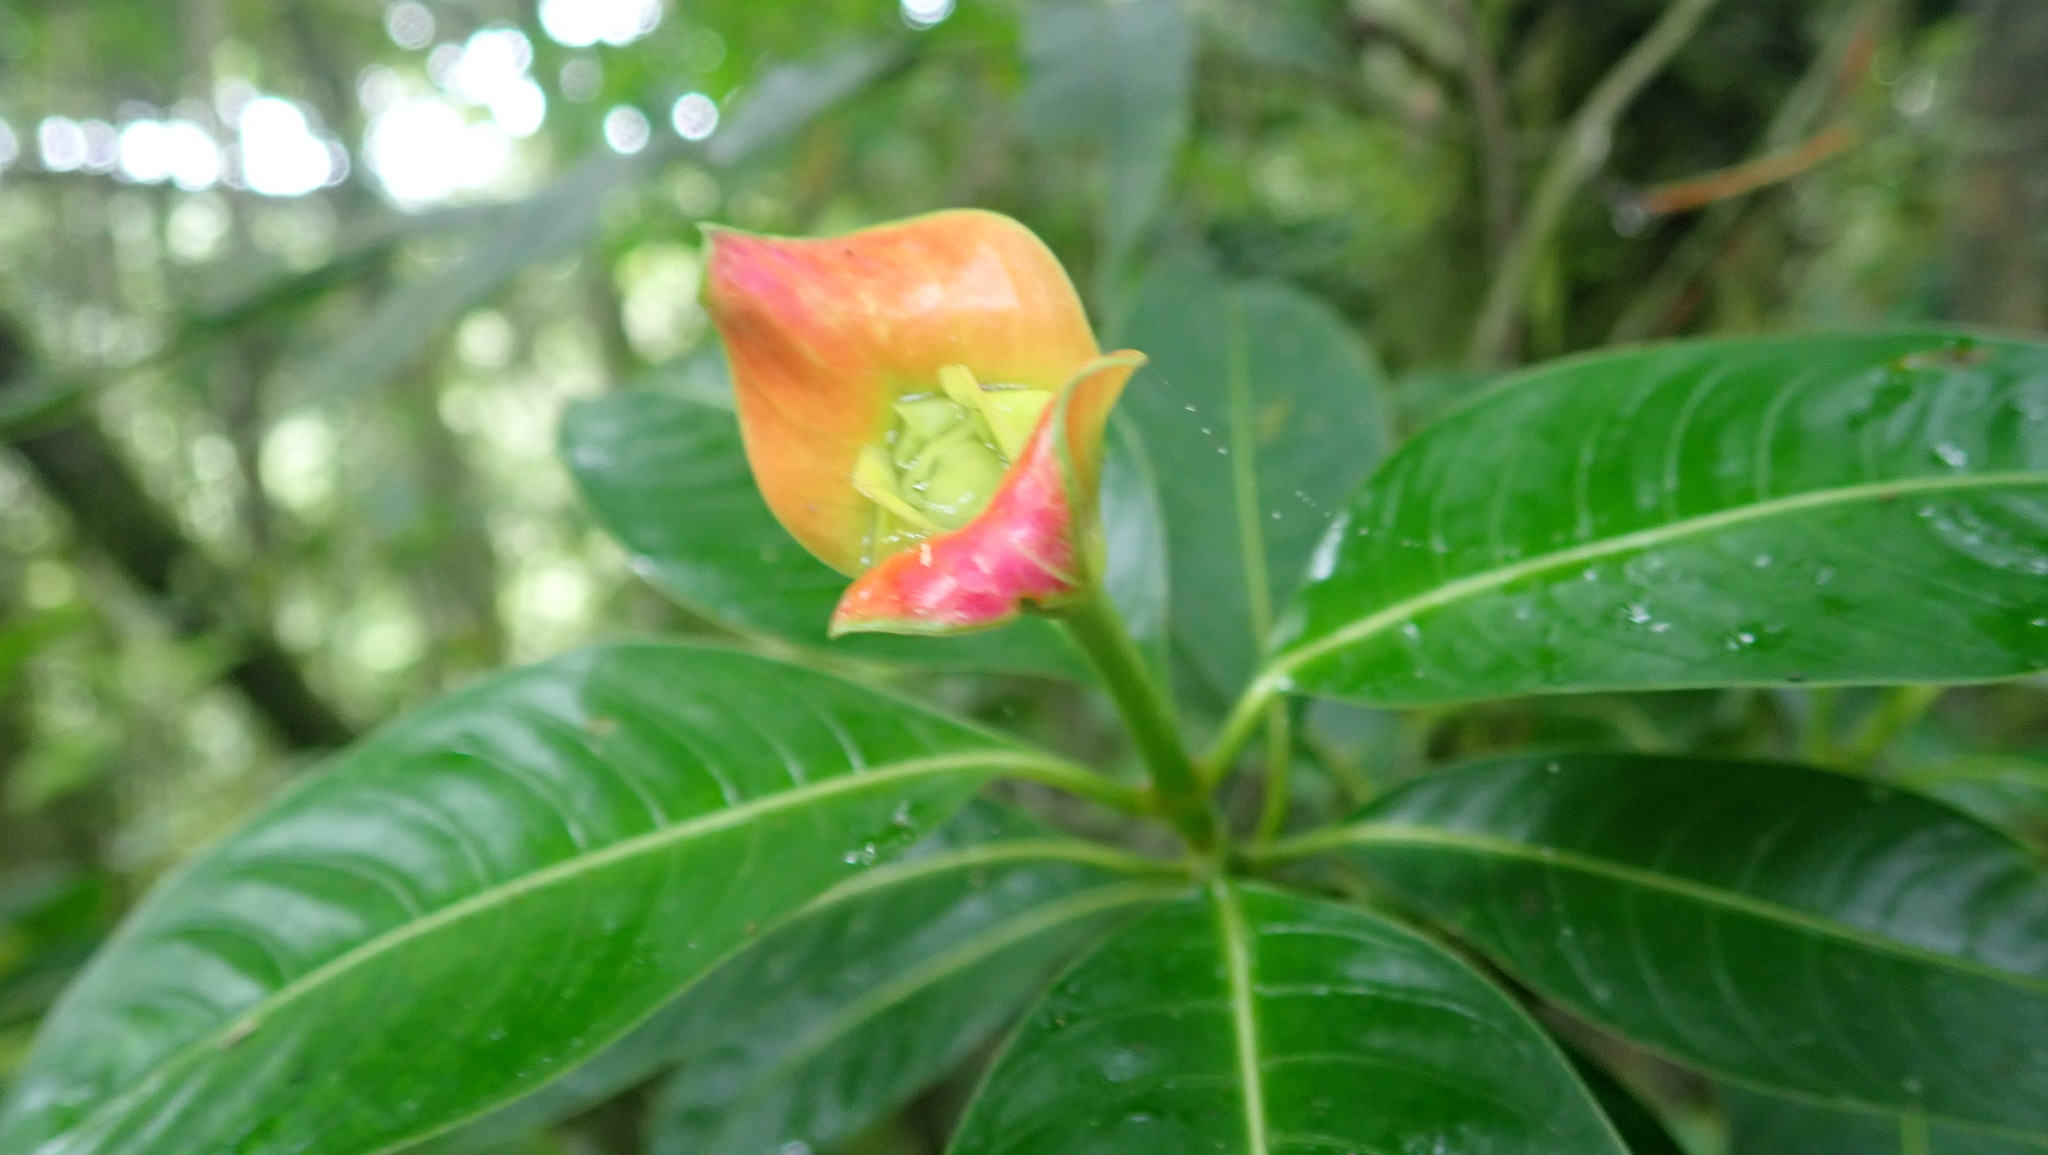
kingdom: Plantae
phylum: Tracheophyta
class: Magnoliopsida
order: Gentianales
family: Rubiaceae
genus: Palicourea
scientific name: Palicourea elata
